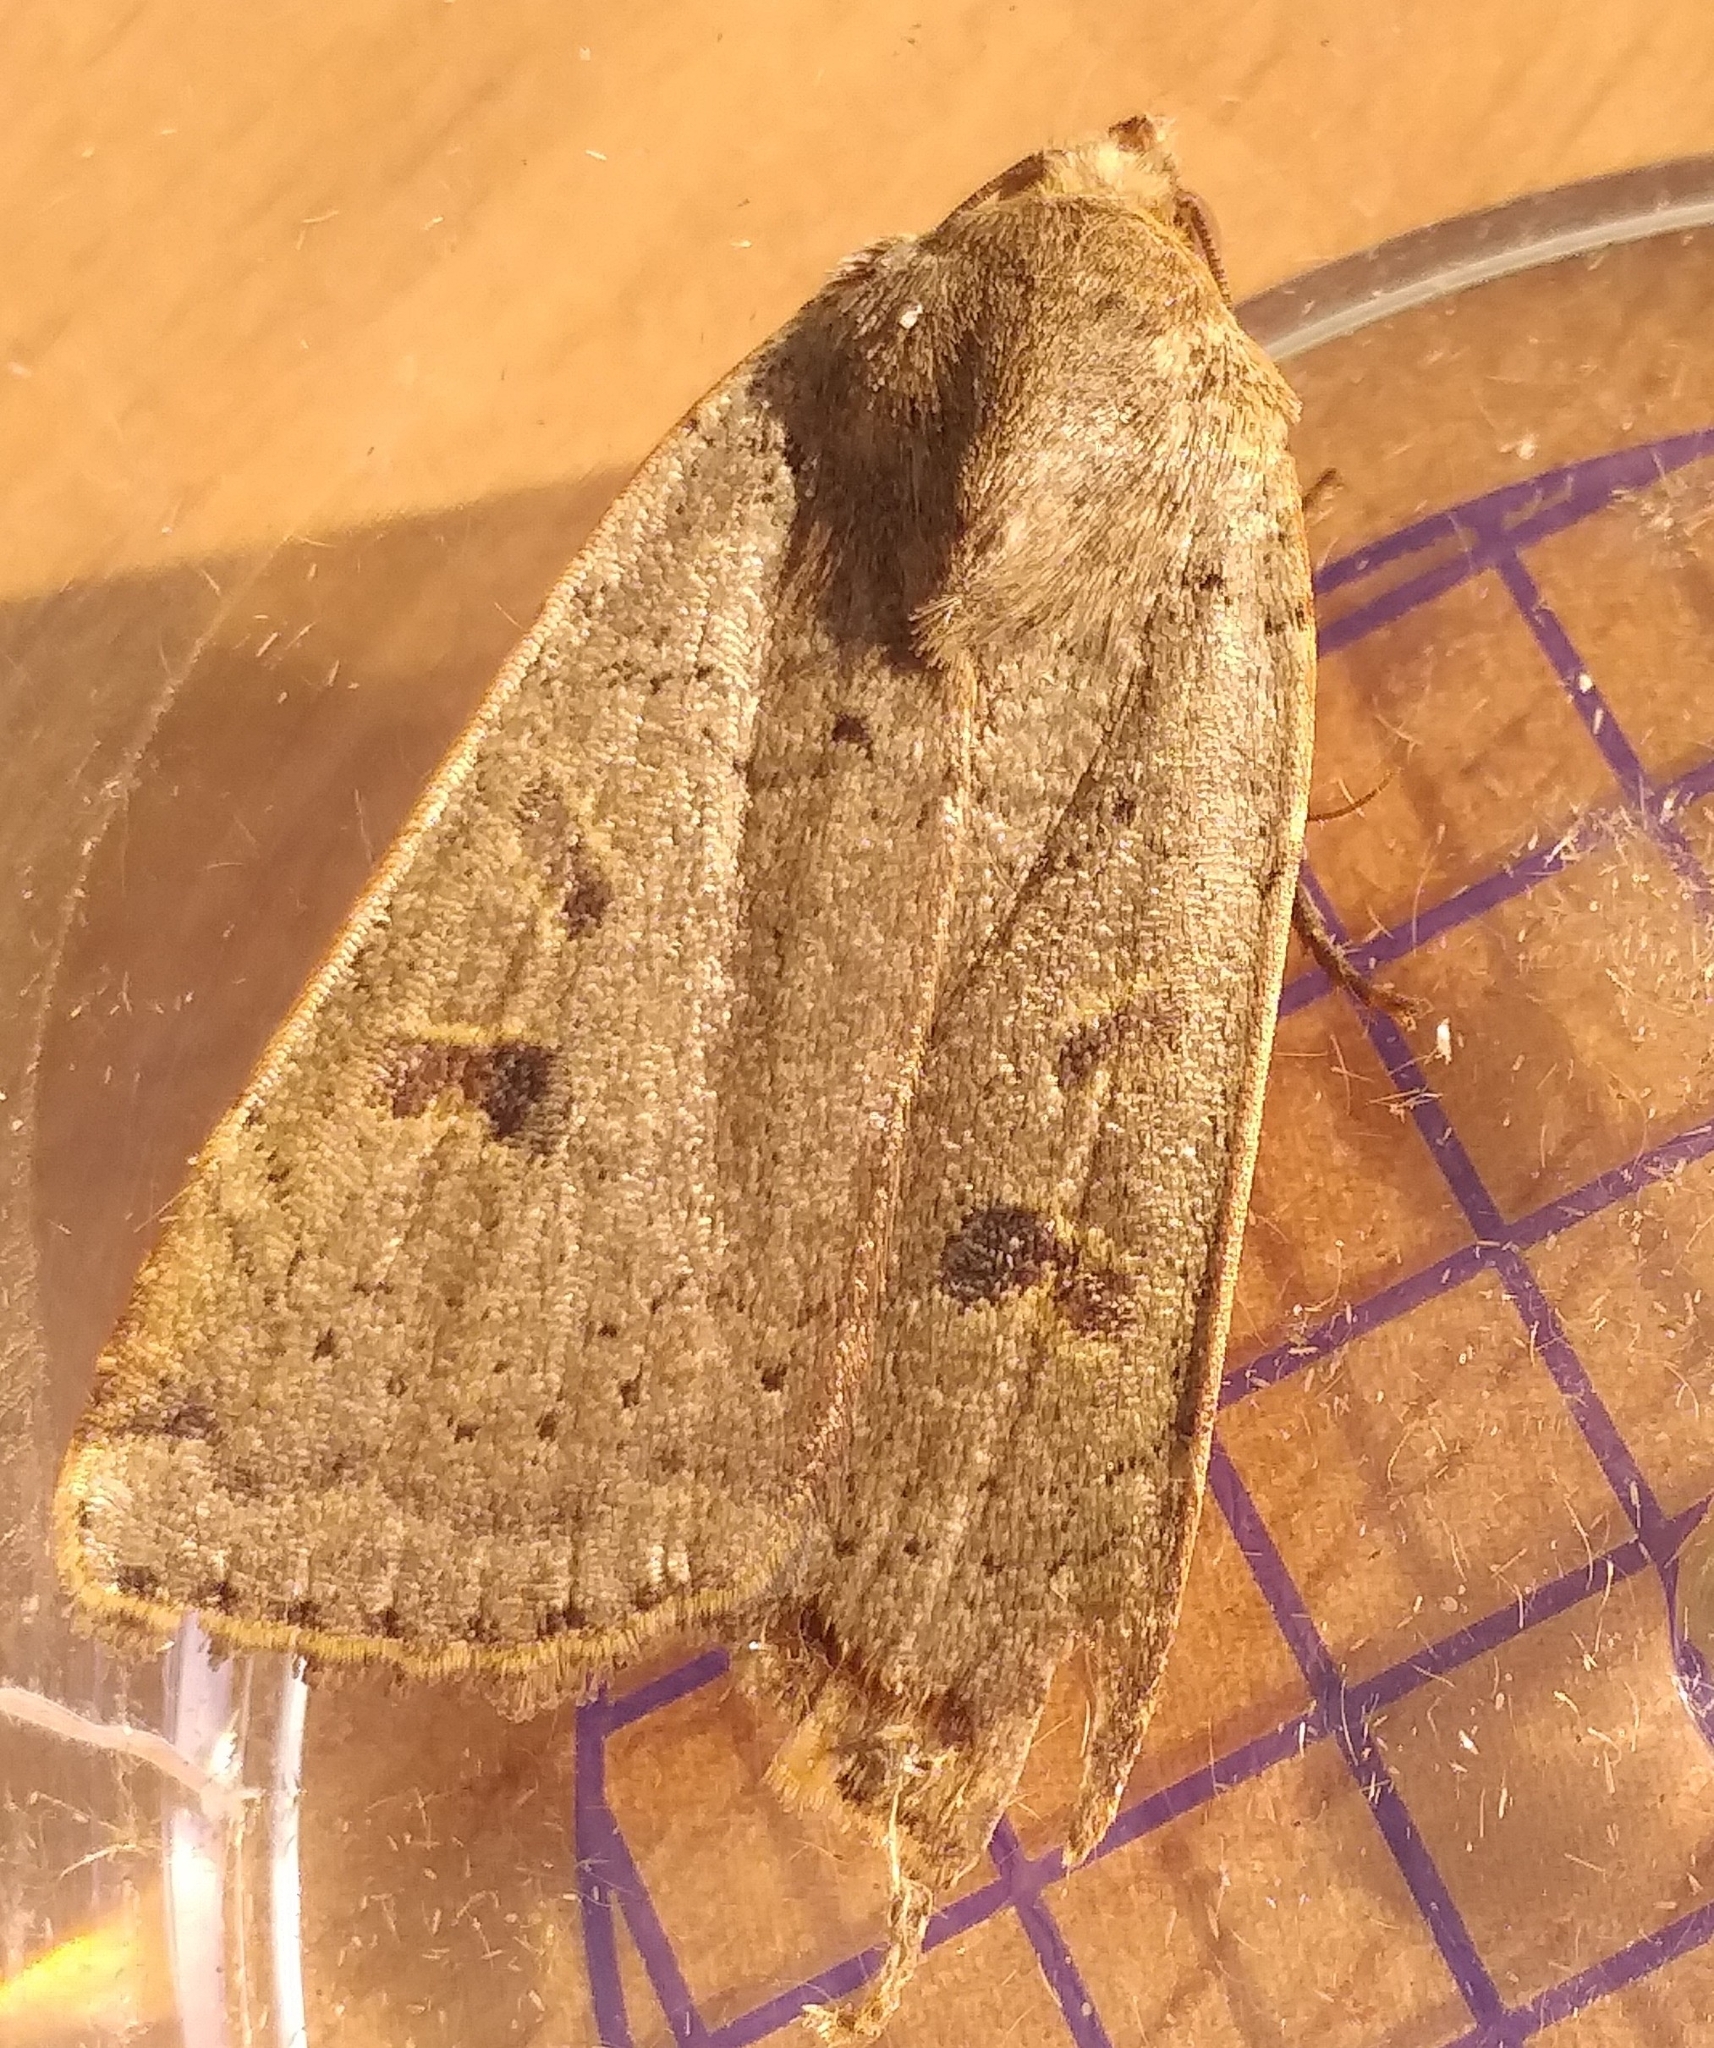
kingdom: Animalia
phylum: Arthropoda
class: Insecta
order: Lepidoptera
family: Noctuidae
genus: Noctua
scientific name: Noctua comes
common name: Lesser yellow underwing
